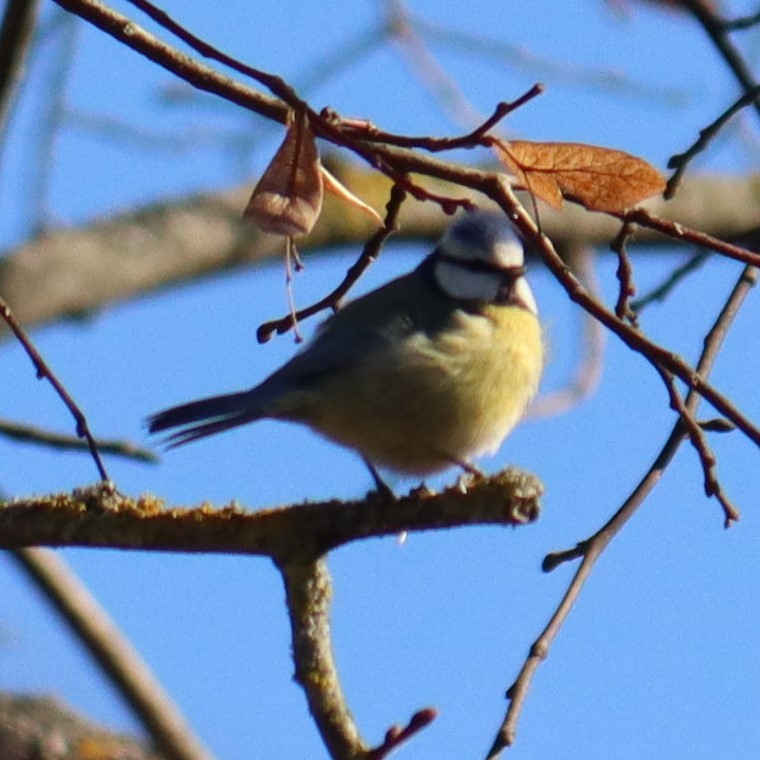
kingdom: Animalia
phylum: Chordata
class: Aves
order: Passeriformes
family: Paridae
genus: Cyanistes
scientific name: Cyanistes caeruleus
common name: Eurasian blue tit
